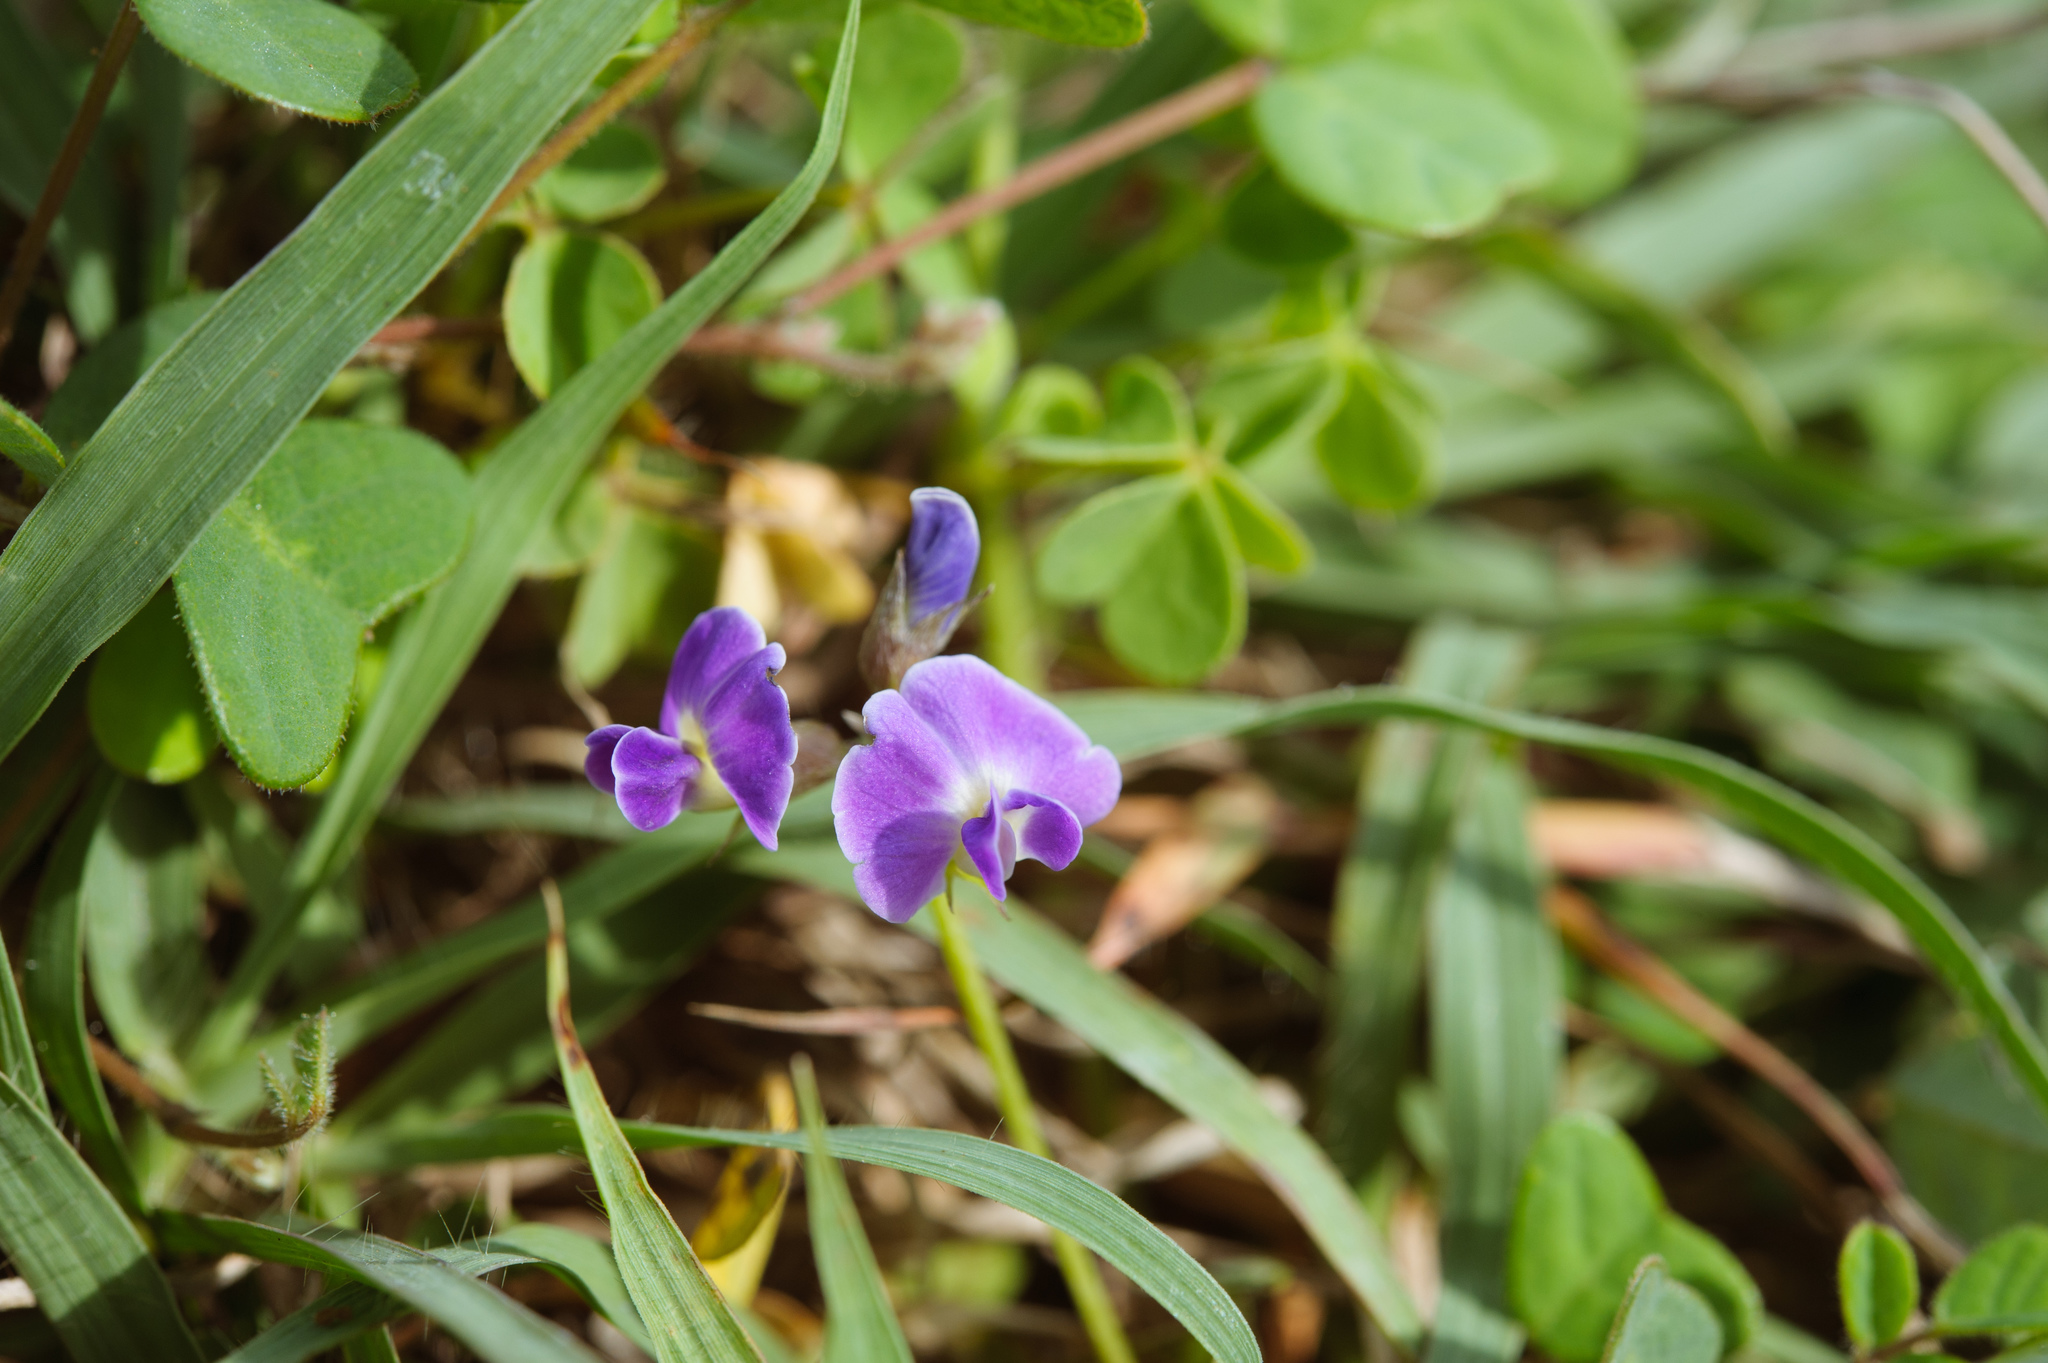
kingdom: Plantae
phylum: Tracheophyta
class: Magnoliopsida
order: Fabales
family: Fabaceae
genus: Glycine
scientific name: Glycine tabacina
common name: Pea glycine
